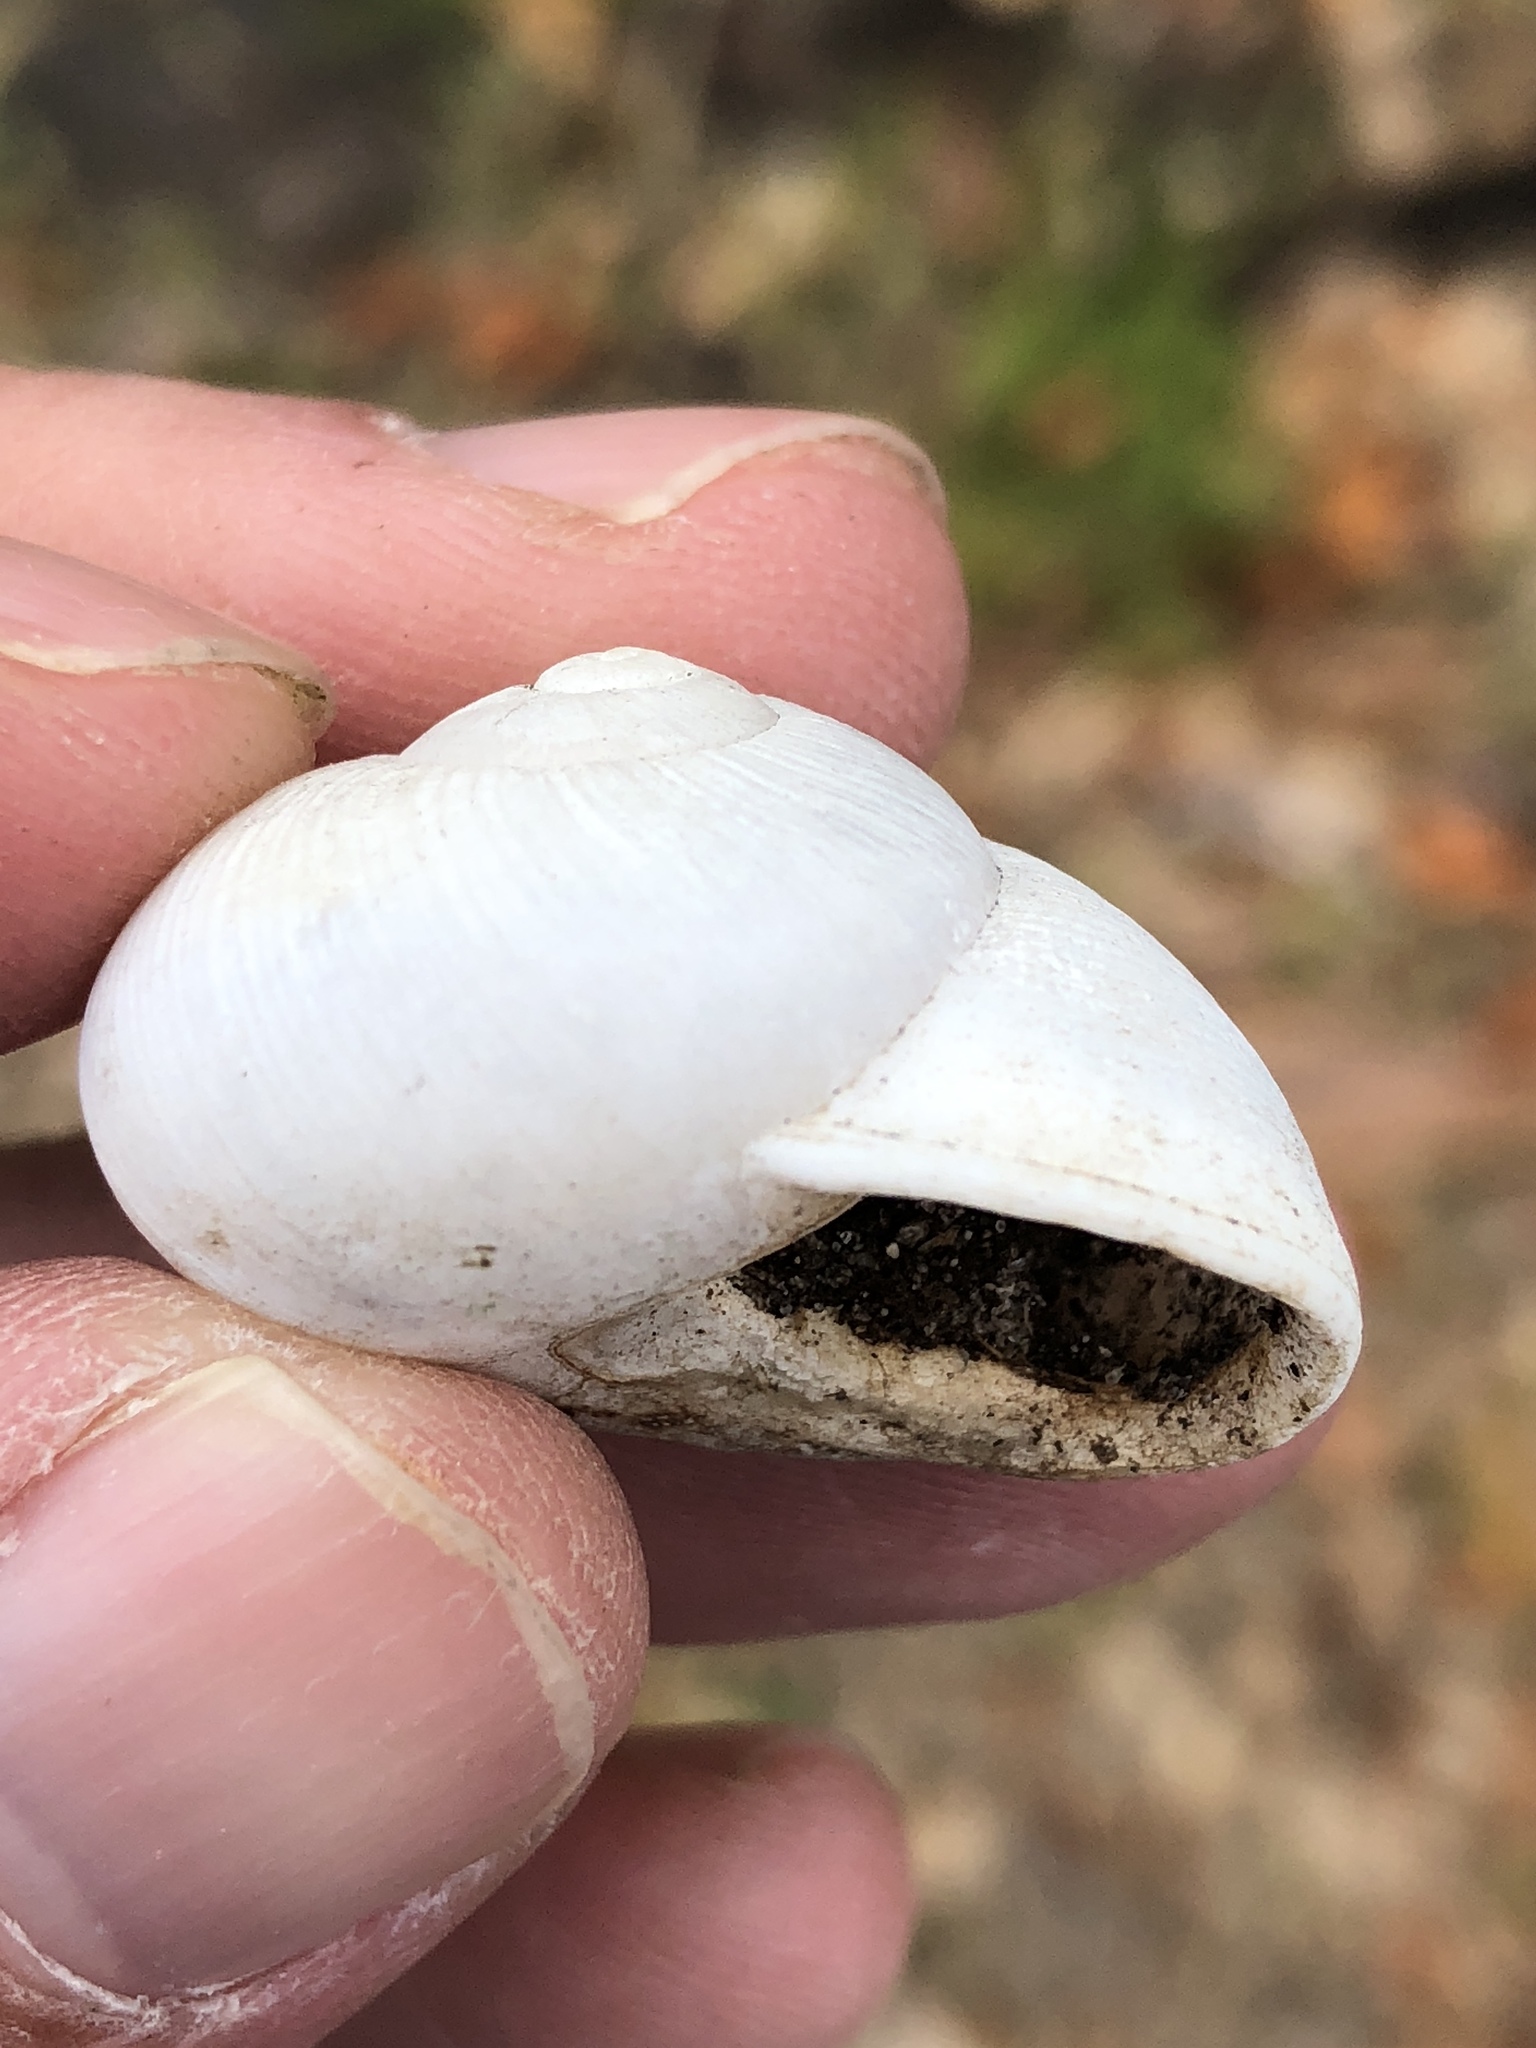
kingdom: Animalia
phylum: Mollusca
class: Gastropoda
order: Stylommatophora
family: Zachrysiidae
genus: Zachrysia
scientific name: Zachrysia provisoria
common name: Garden zachrysia
